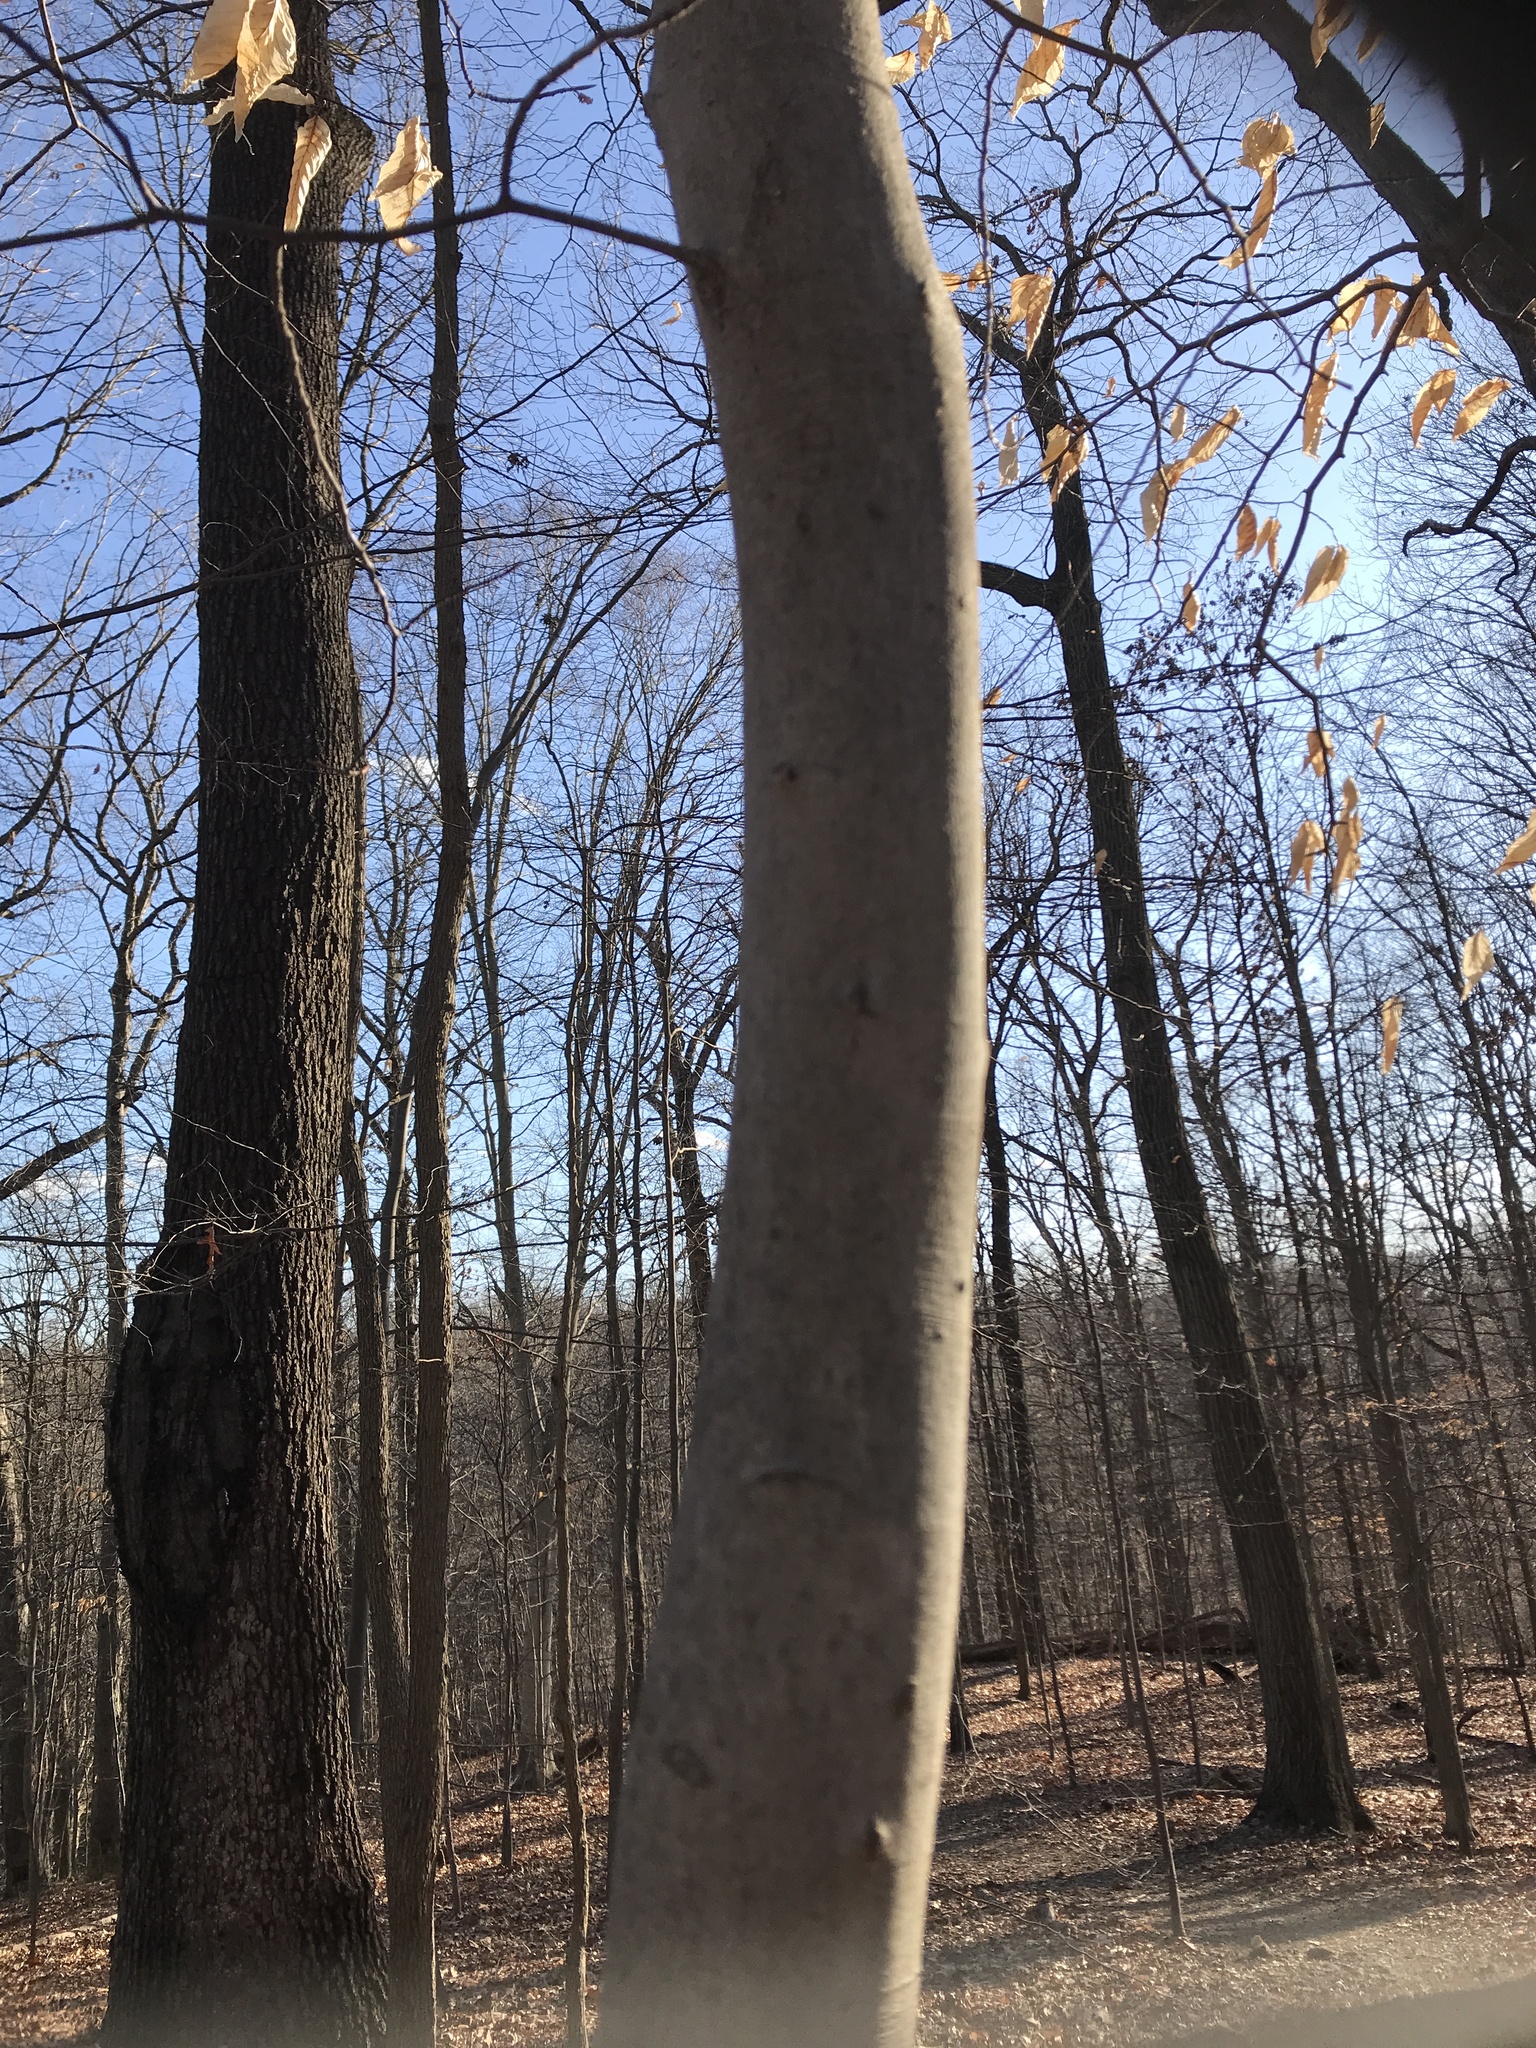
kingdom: Plantae
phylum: Tracheophyta
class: Magnoliopsida
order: Fagales
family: Fagaceae
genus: Fagus
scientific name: Fagus grandifolia
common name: American beech
